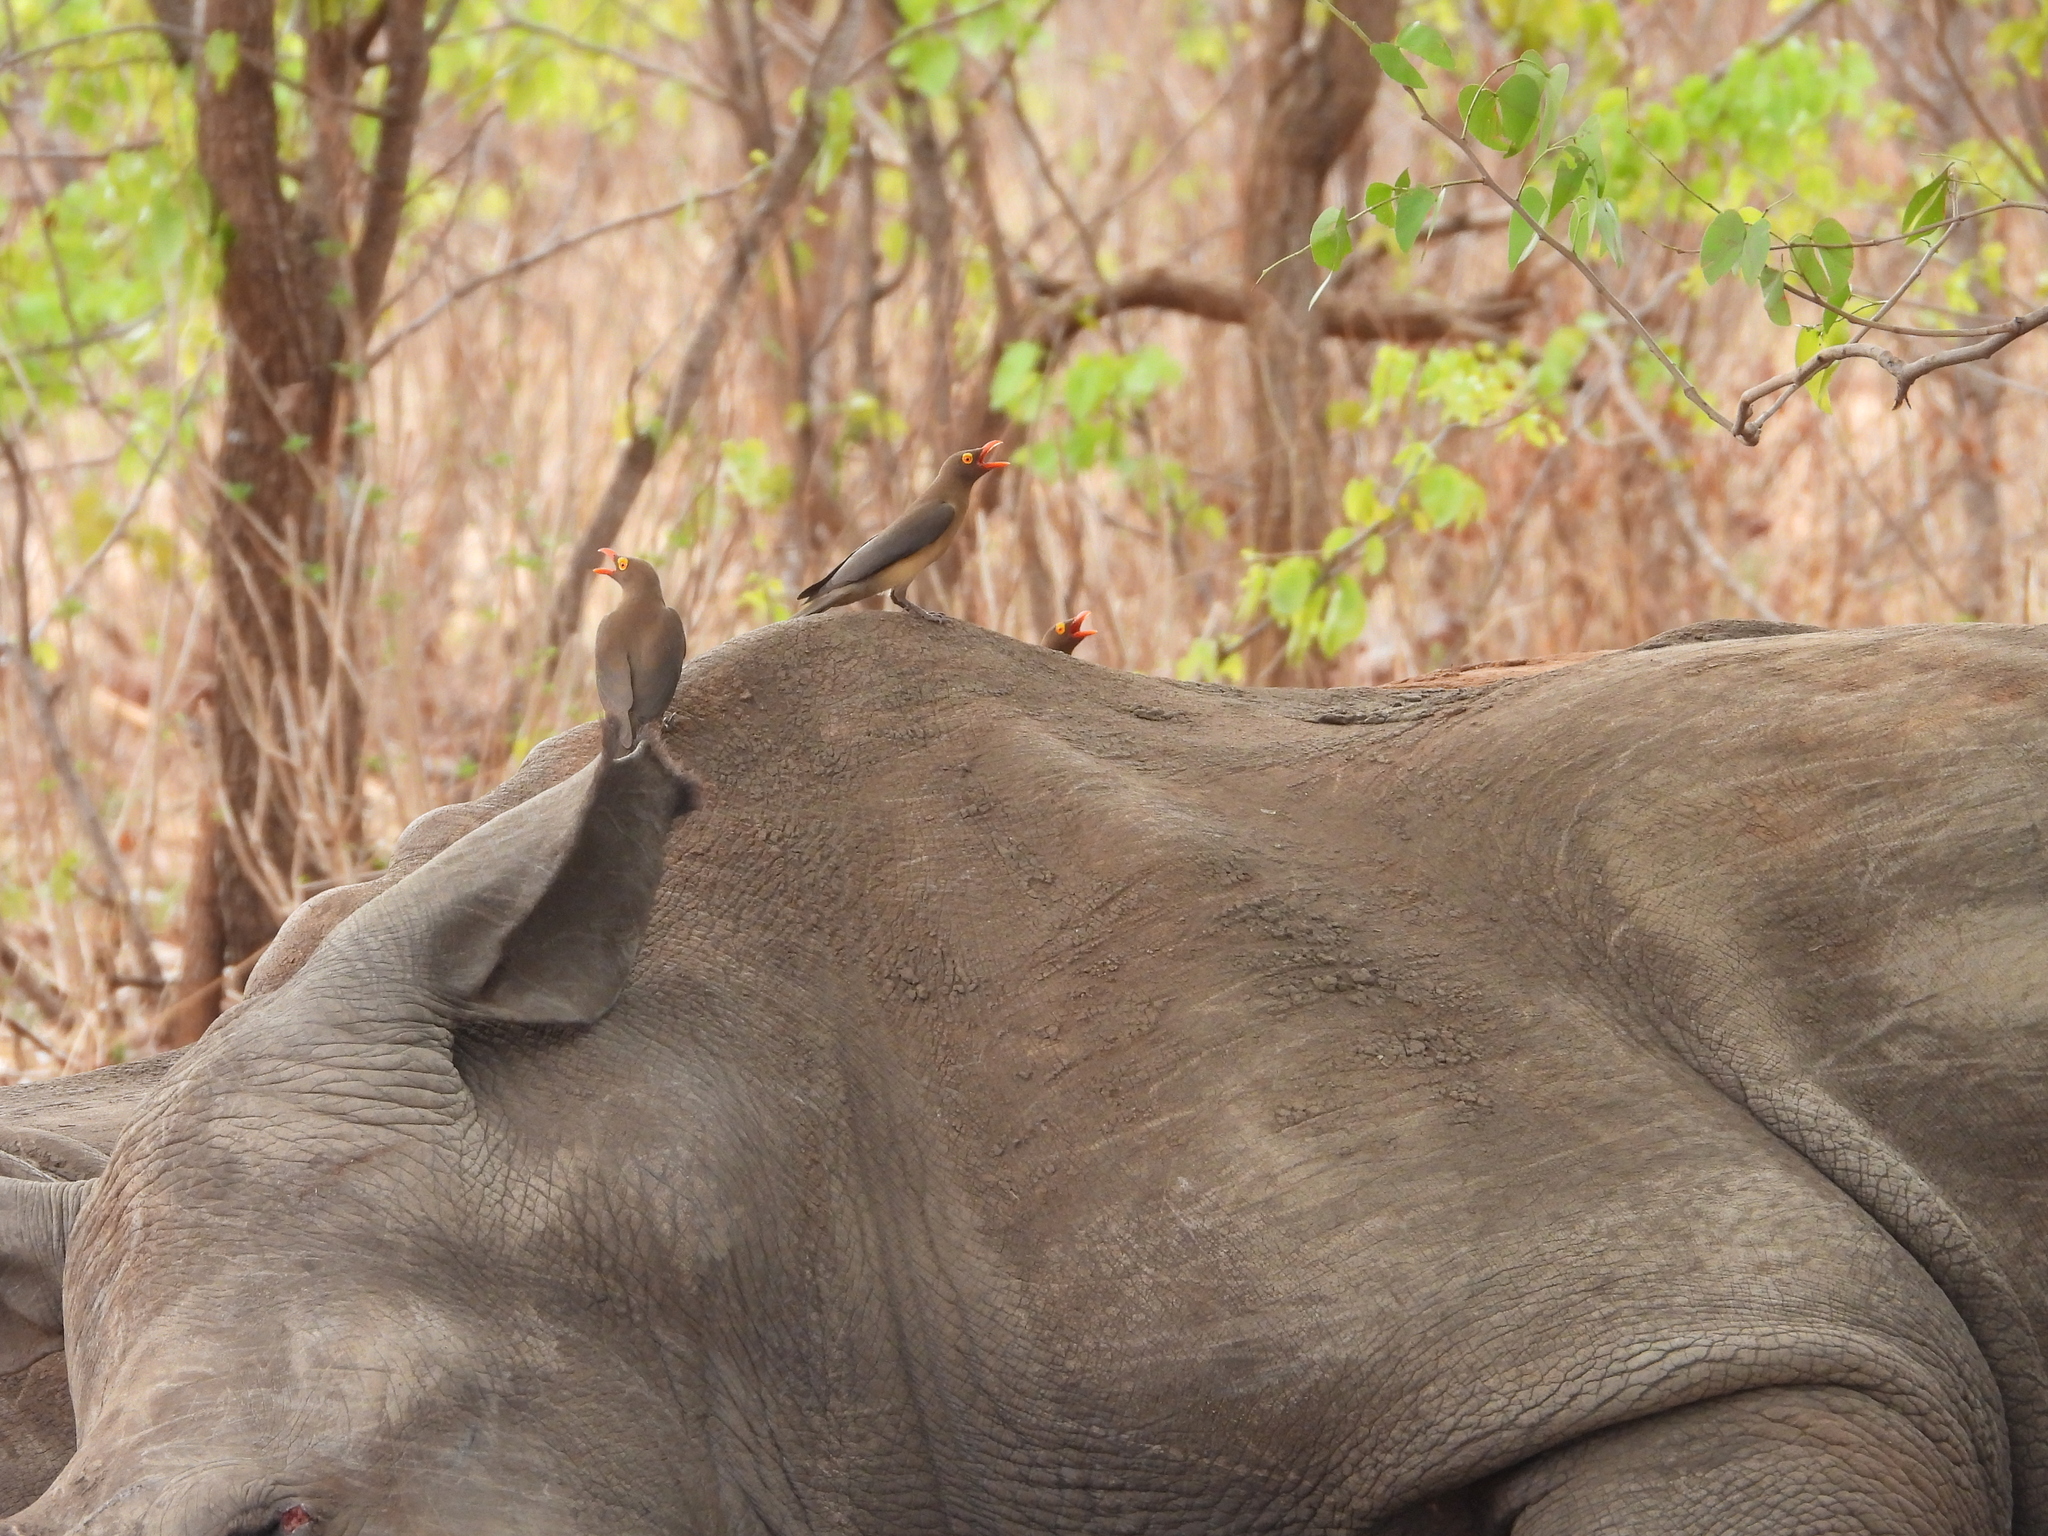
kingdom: Animalia
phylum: Chordata
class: Aves
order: Passeriformes
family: Buphagidae
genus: Buphagus
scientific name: Buphagus erythrorhynchus
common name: Red-billed oxpecker
